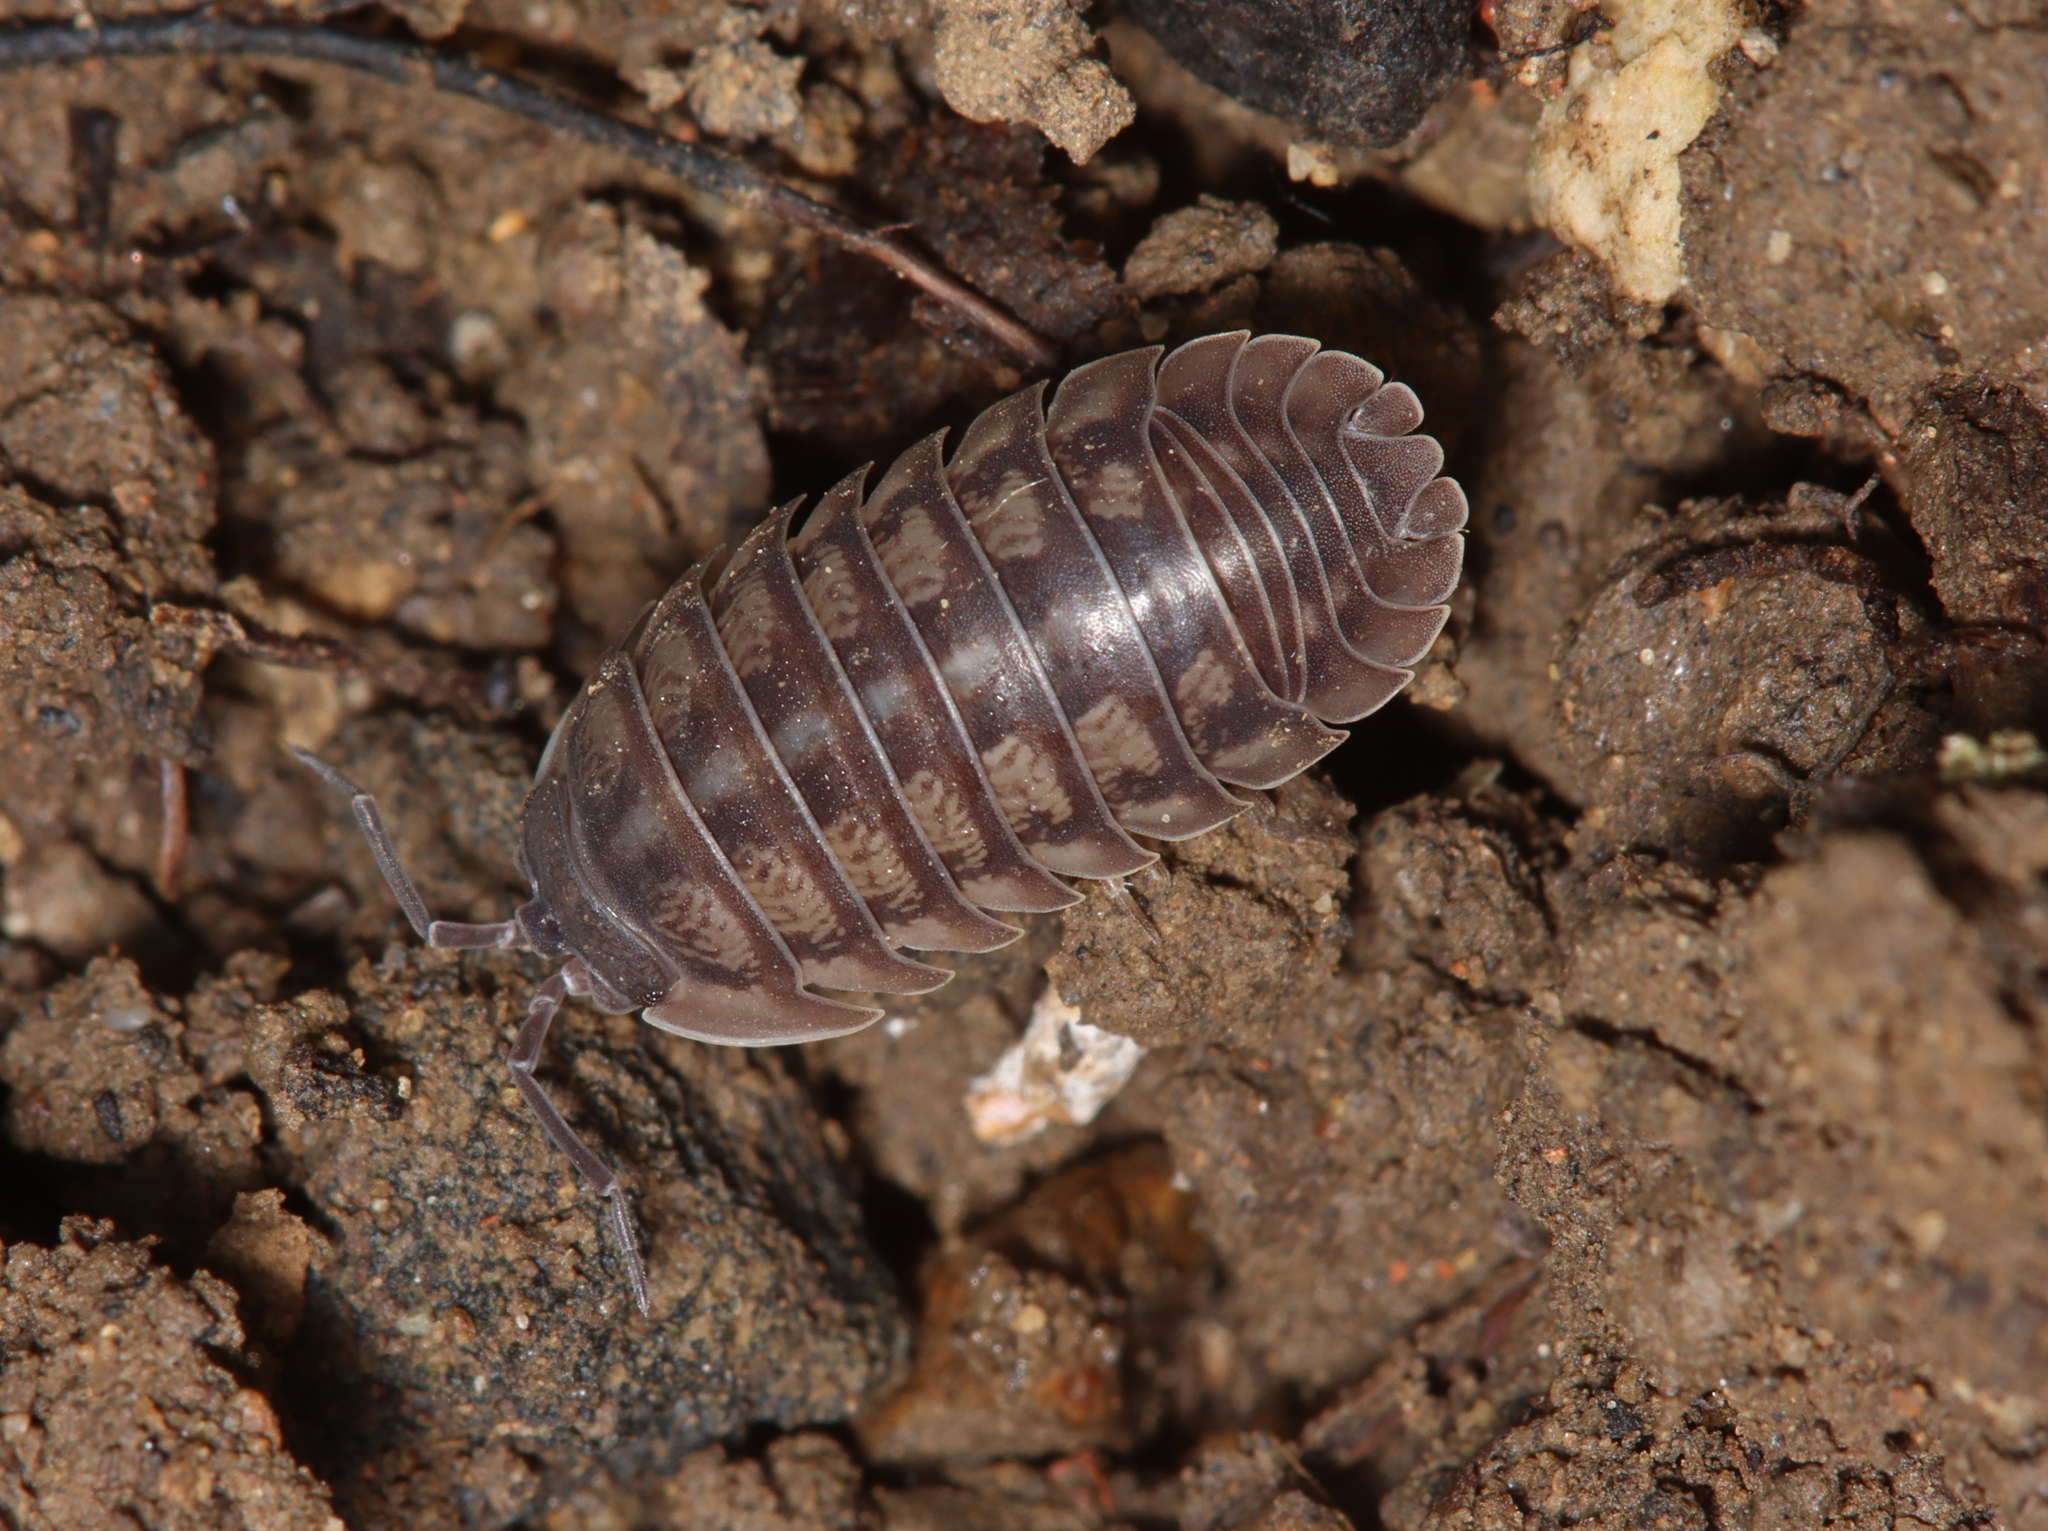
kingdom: Animalia
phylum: Arthropoda
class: Malacostraca
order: Isopoda
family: Armadillidiidae
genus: Armadillidium
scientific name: Armadillidium nasatum
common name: Isopod
